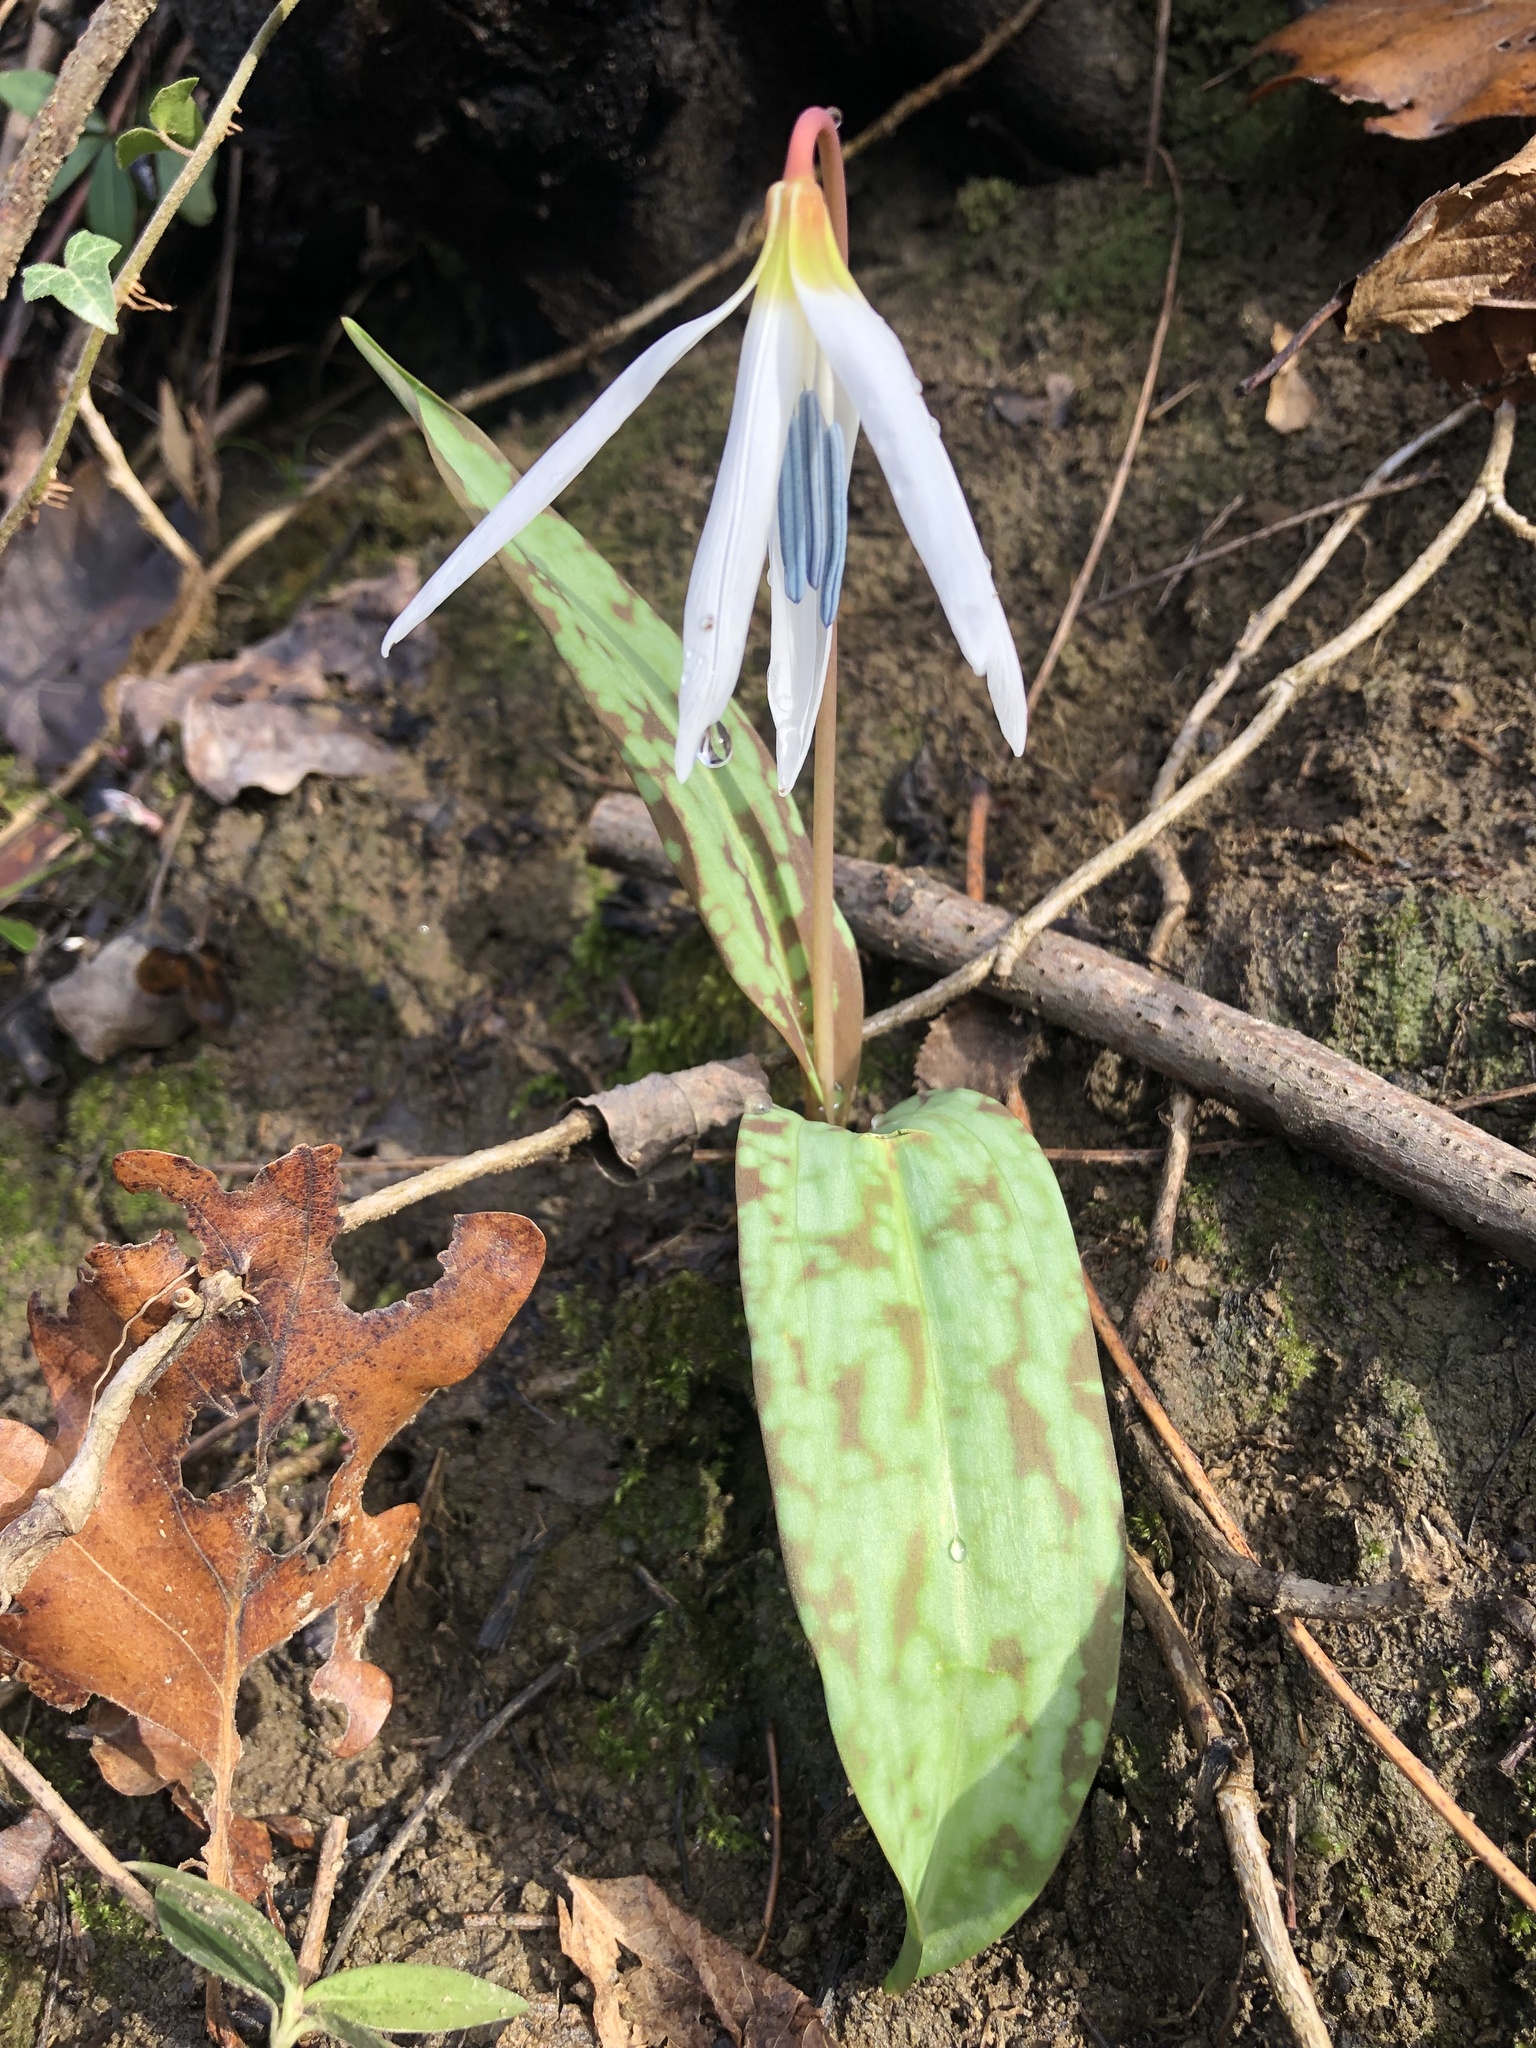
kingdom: Plantae
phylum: Tracheophyta
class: Liliopsida
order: Liliales
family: Liliaceae
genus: Erythronium
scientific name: Erythronium dens-canis
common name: Dog's-tooth-violet
